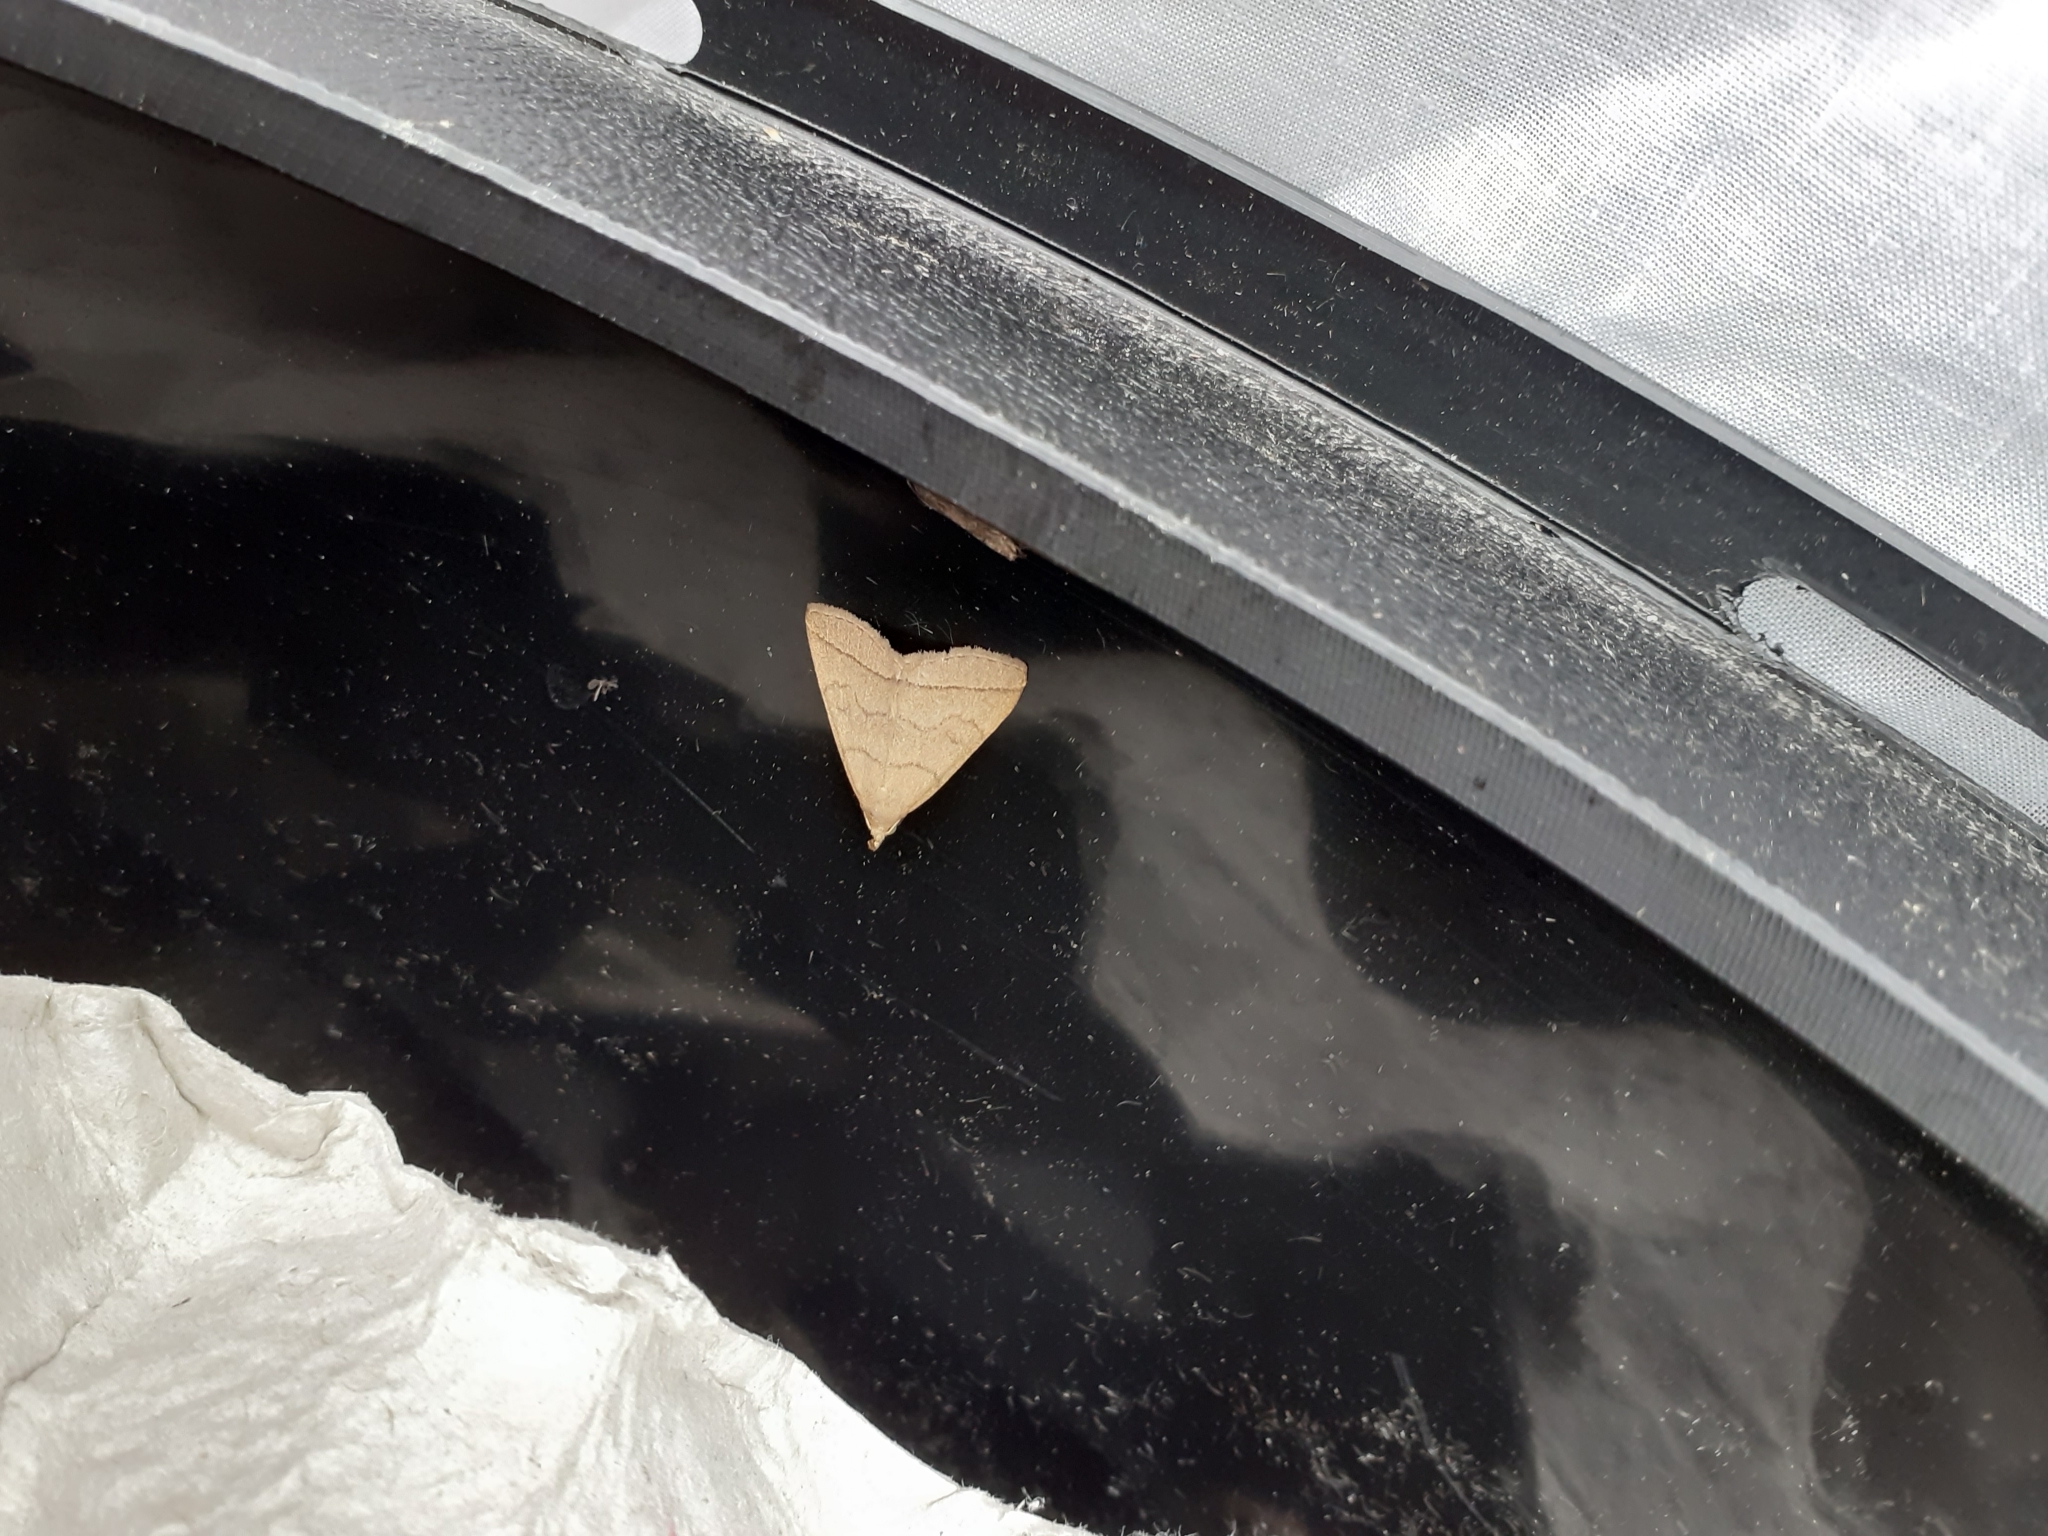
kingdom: Animalia
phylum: Arthropoda
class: Insecta
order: Lepidoptera
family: Erebidae
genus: Herminia
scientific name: Herminia tarsipennalis
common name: Fan-foot
